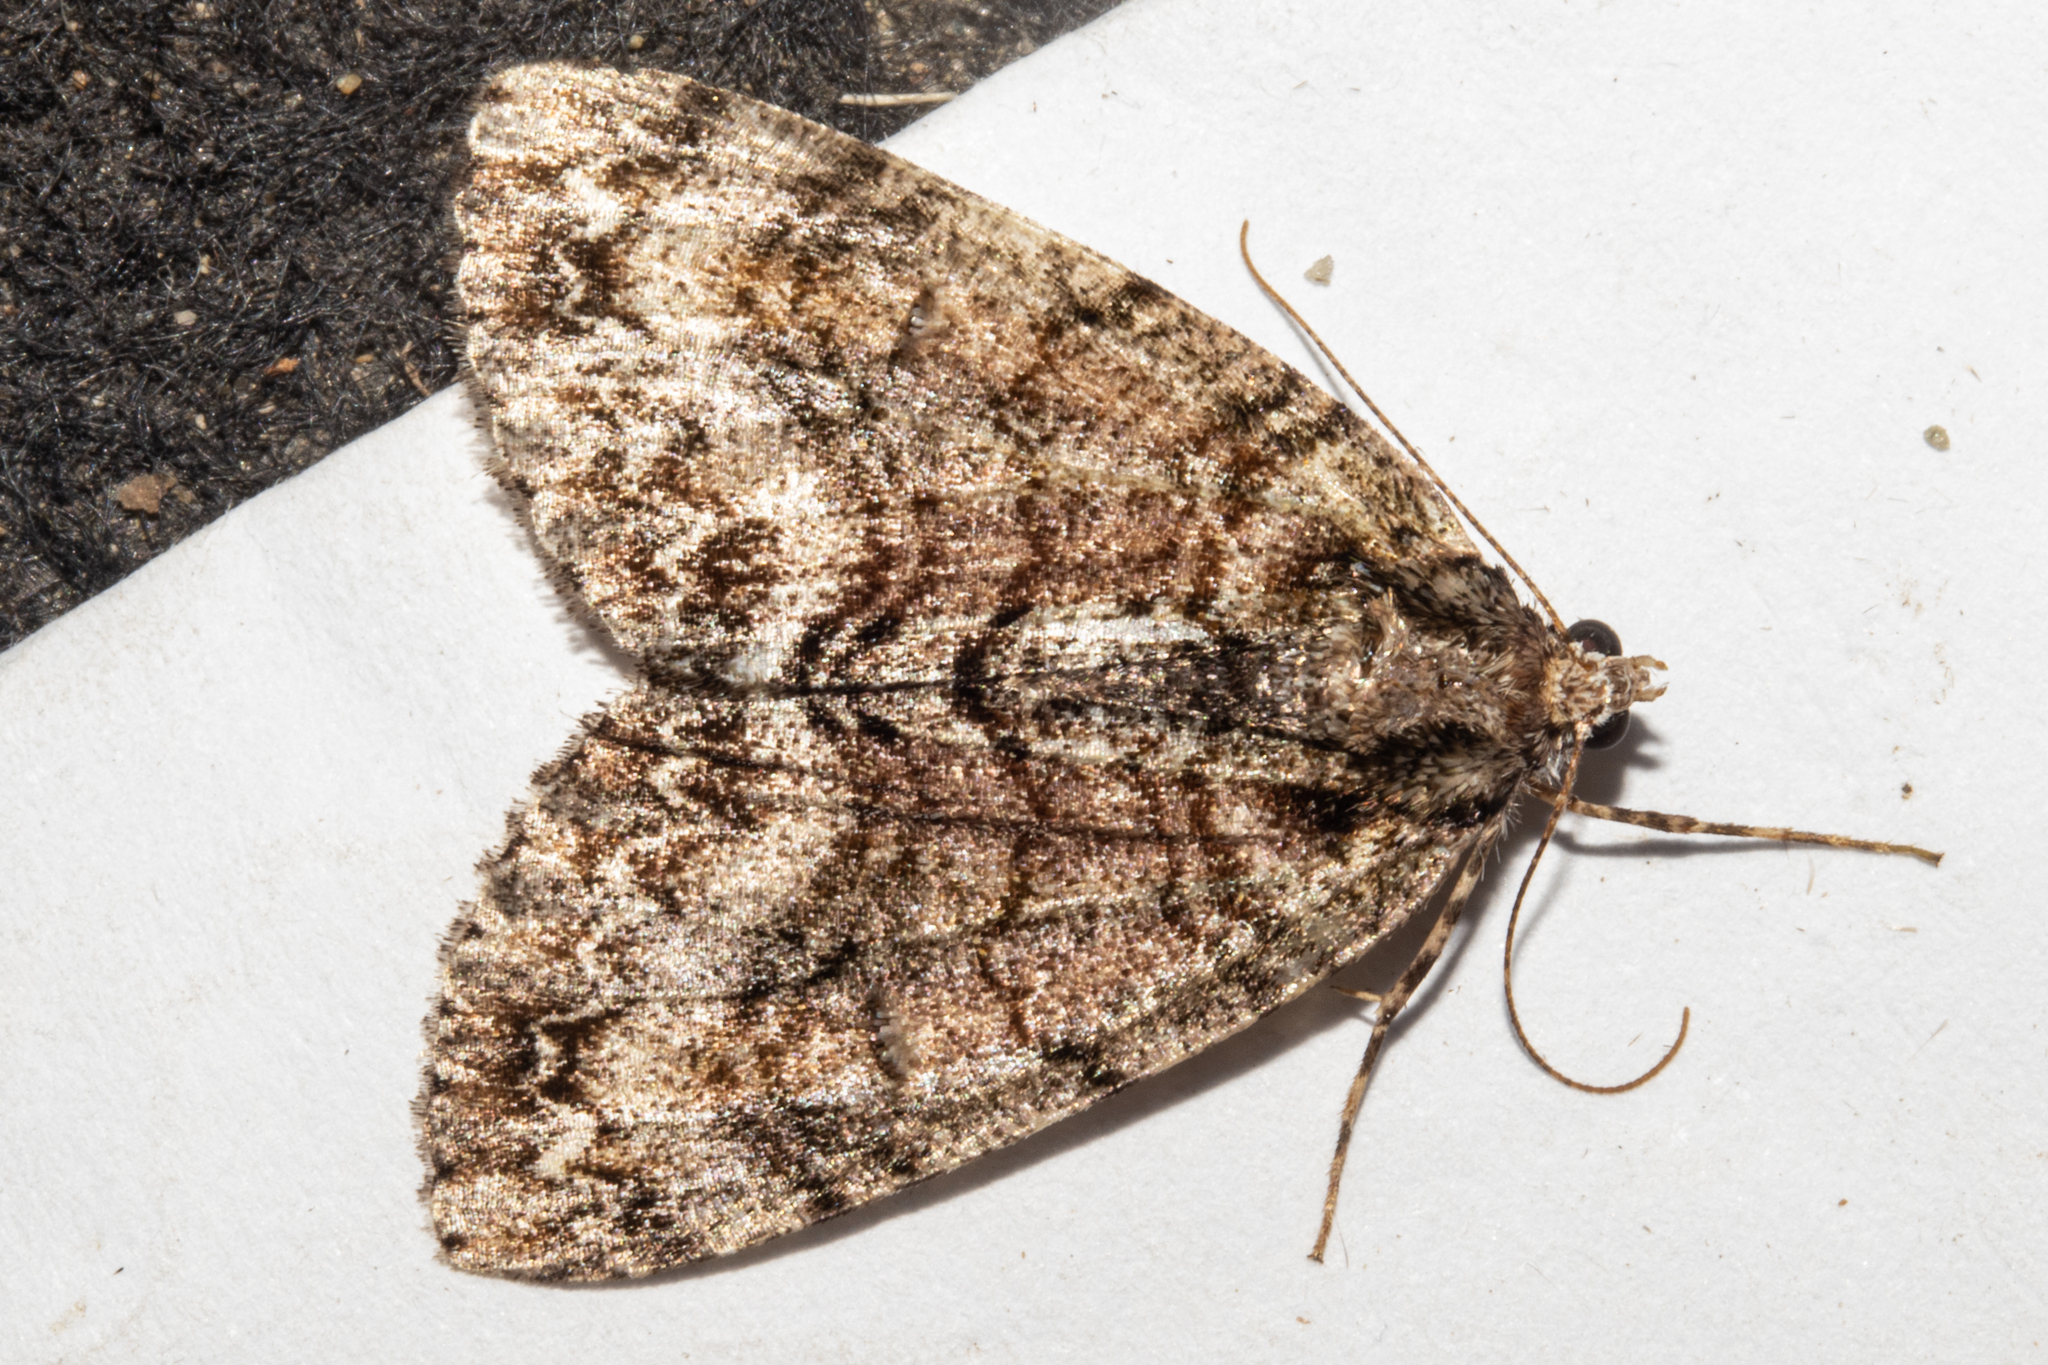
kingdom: Animalia
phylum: Arthropoda
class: Insecta
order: Lepidoptera
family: Geometridae
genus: Pseudocoremia
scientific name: Pseudocoremia suavis
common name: Common forest looper
